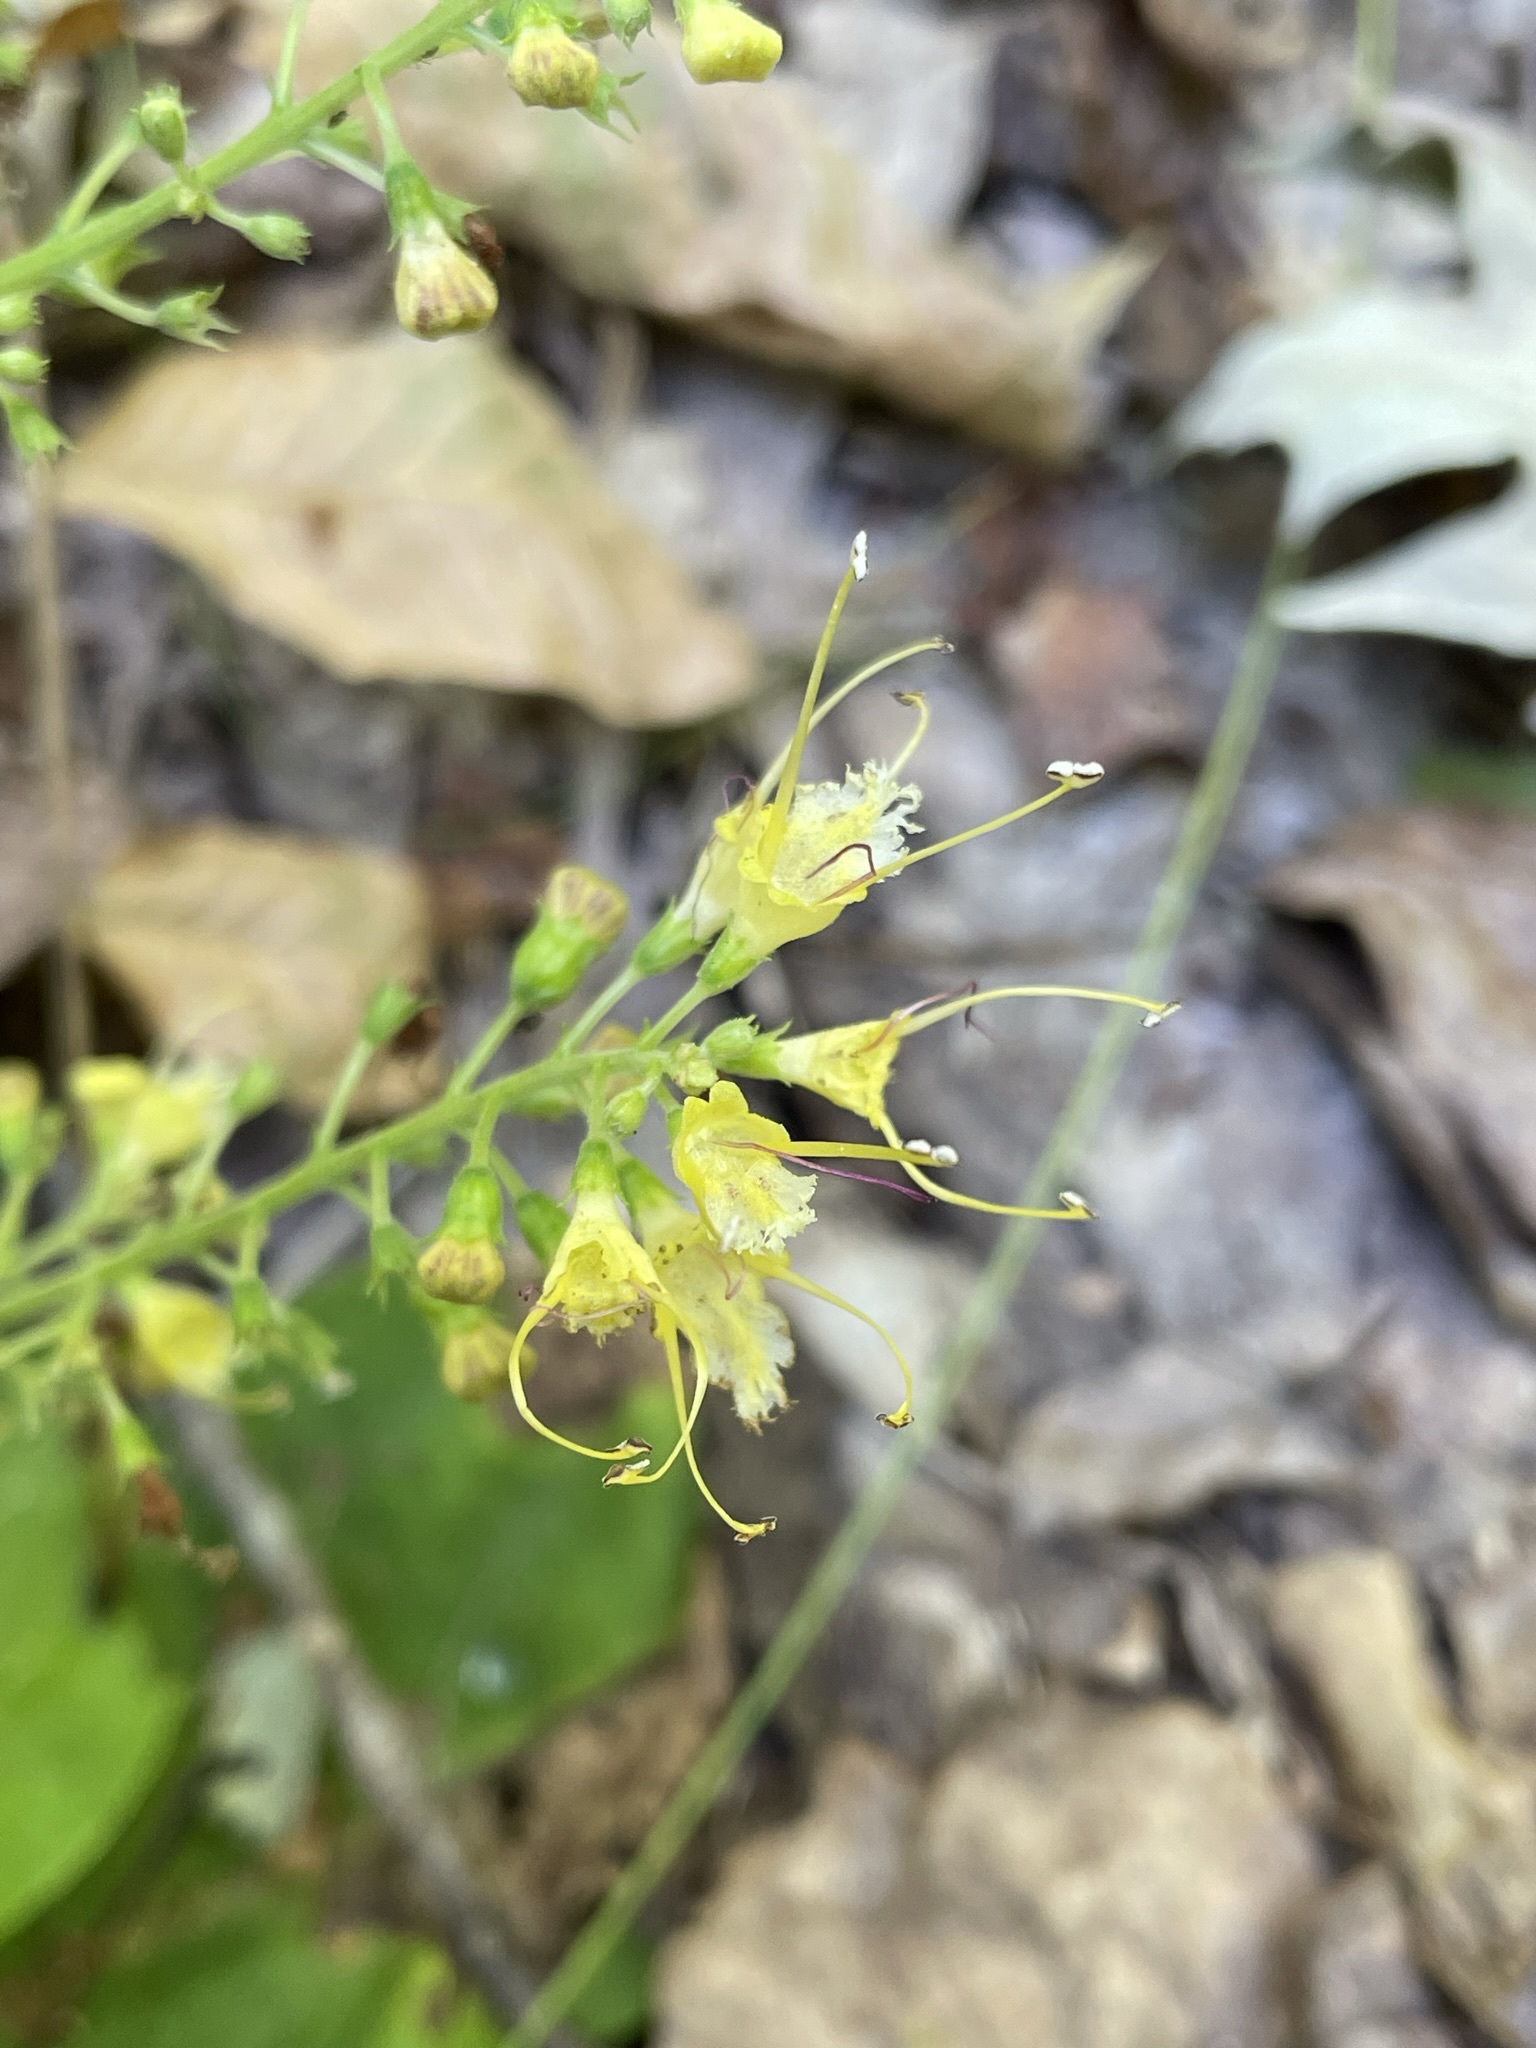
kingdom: Plantae
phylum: Tracheophyta
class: Magnoliopsida
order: Lamiales
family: Lamiaceae
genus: Collinsonia
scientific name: Collinsonia canadensis
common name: Northern horsebalm
